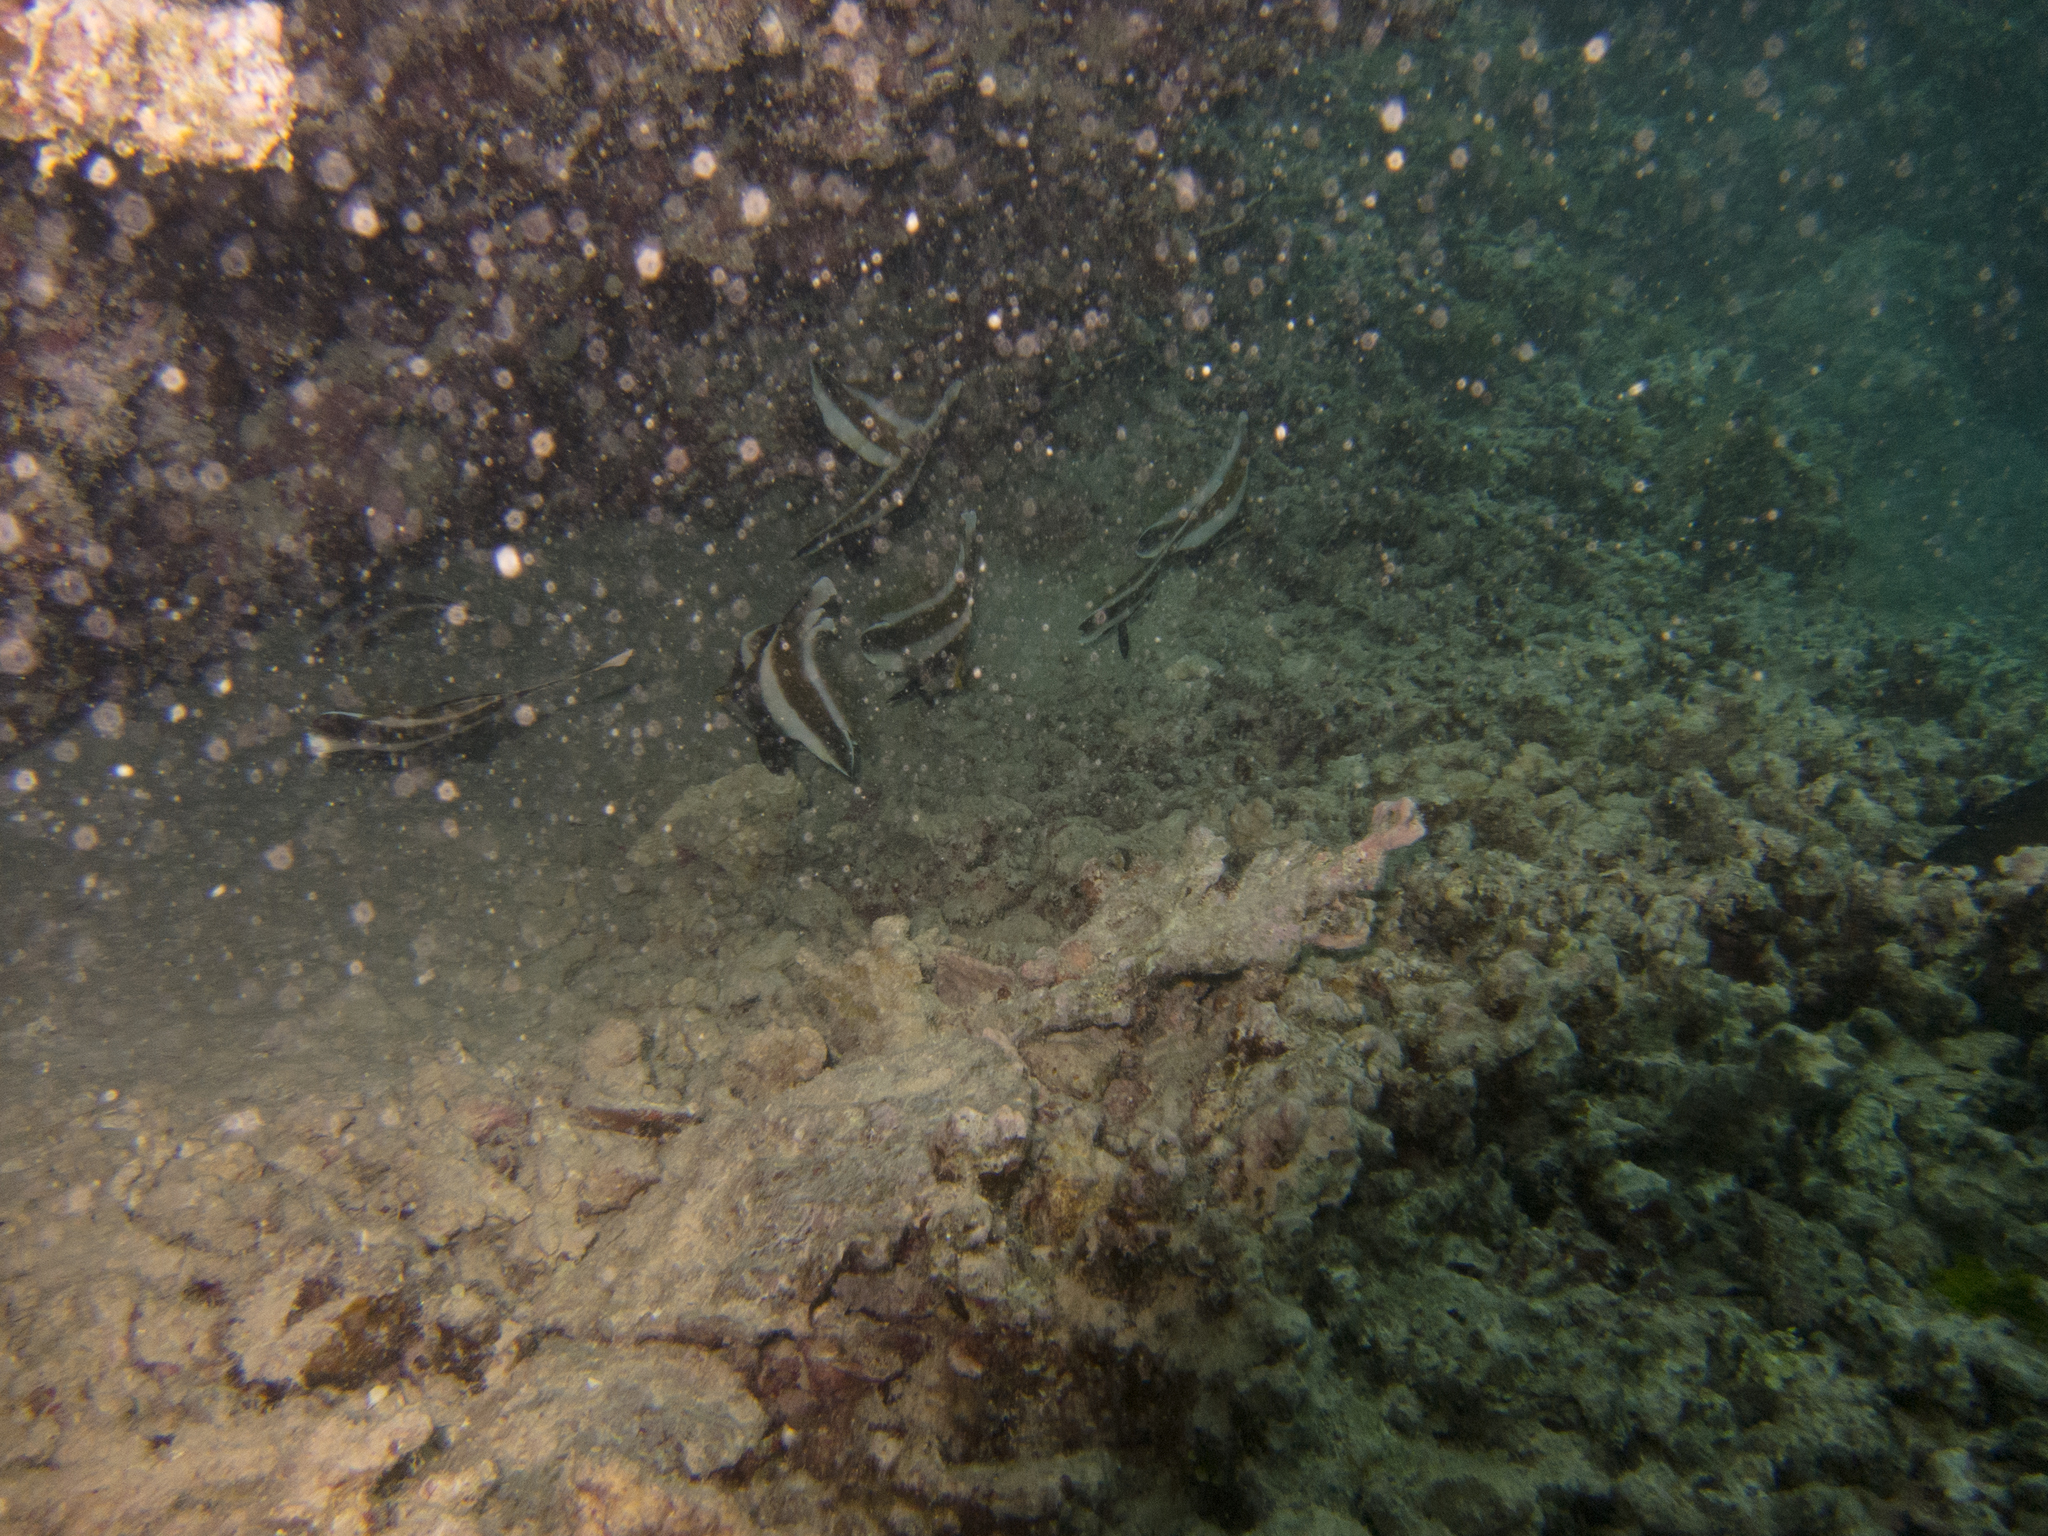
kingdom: Animalia
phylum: Chordata
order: Perciformes
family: Chaetodontidae
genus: Heniochus
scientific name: Heniochus chrysostomus
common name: Horned bannerfish
